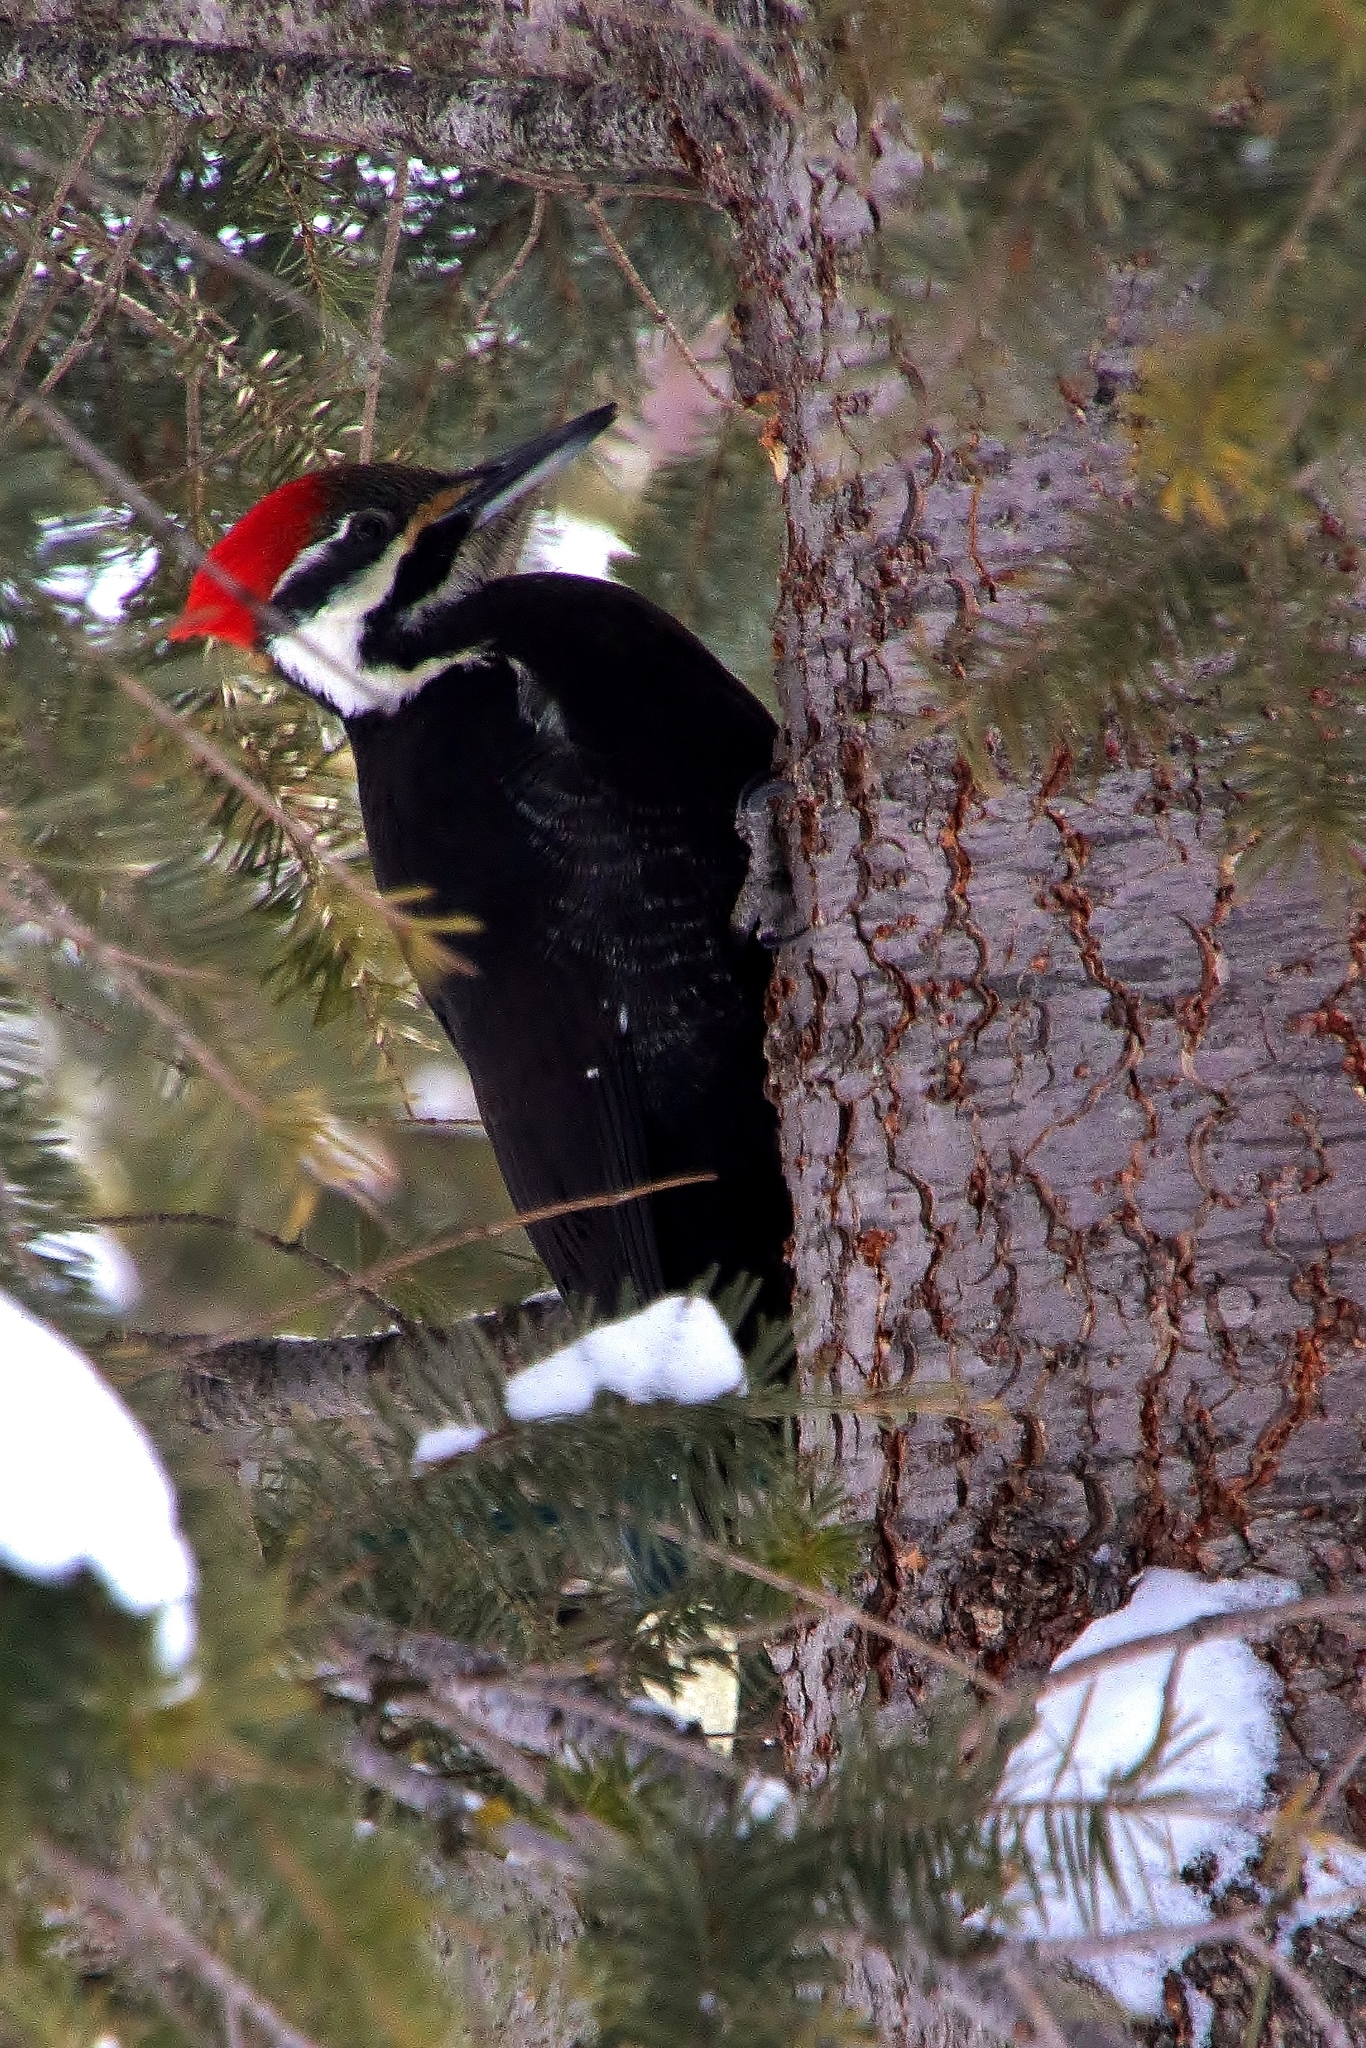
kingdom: Animalia
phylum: Chordata
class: Aves
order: Piciformes
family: Picidae
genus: Dryocopus
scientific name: Dryocopus pileatus
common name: Pileated woodpecker
